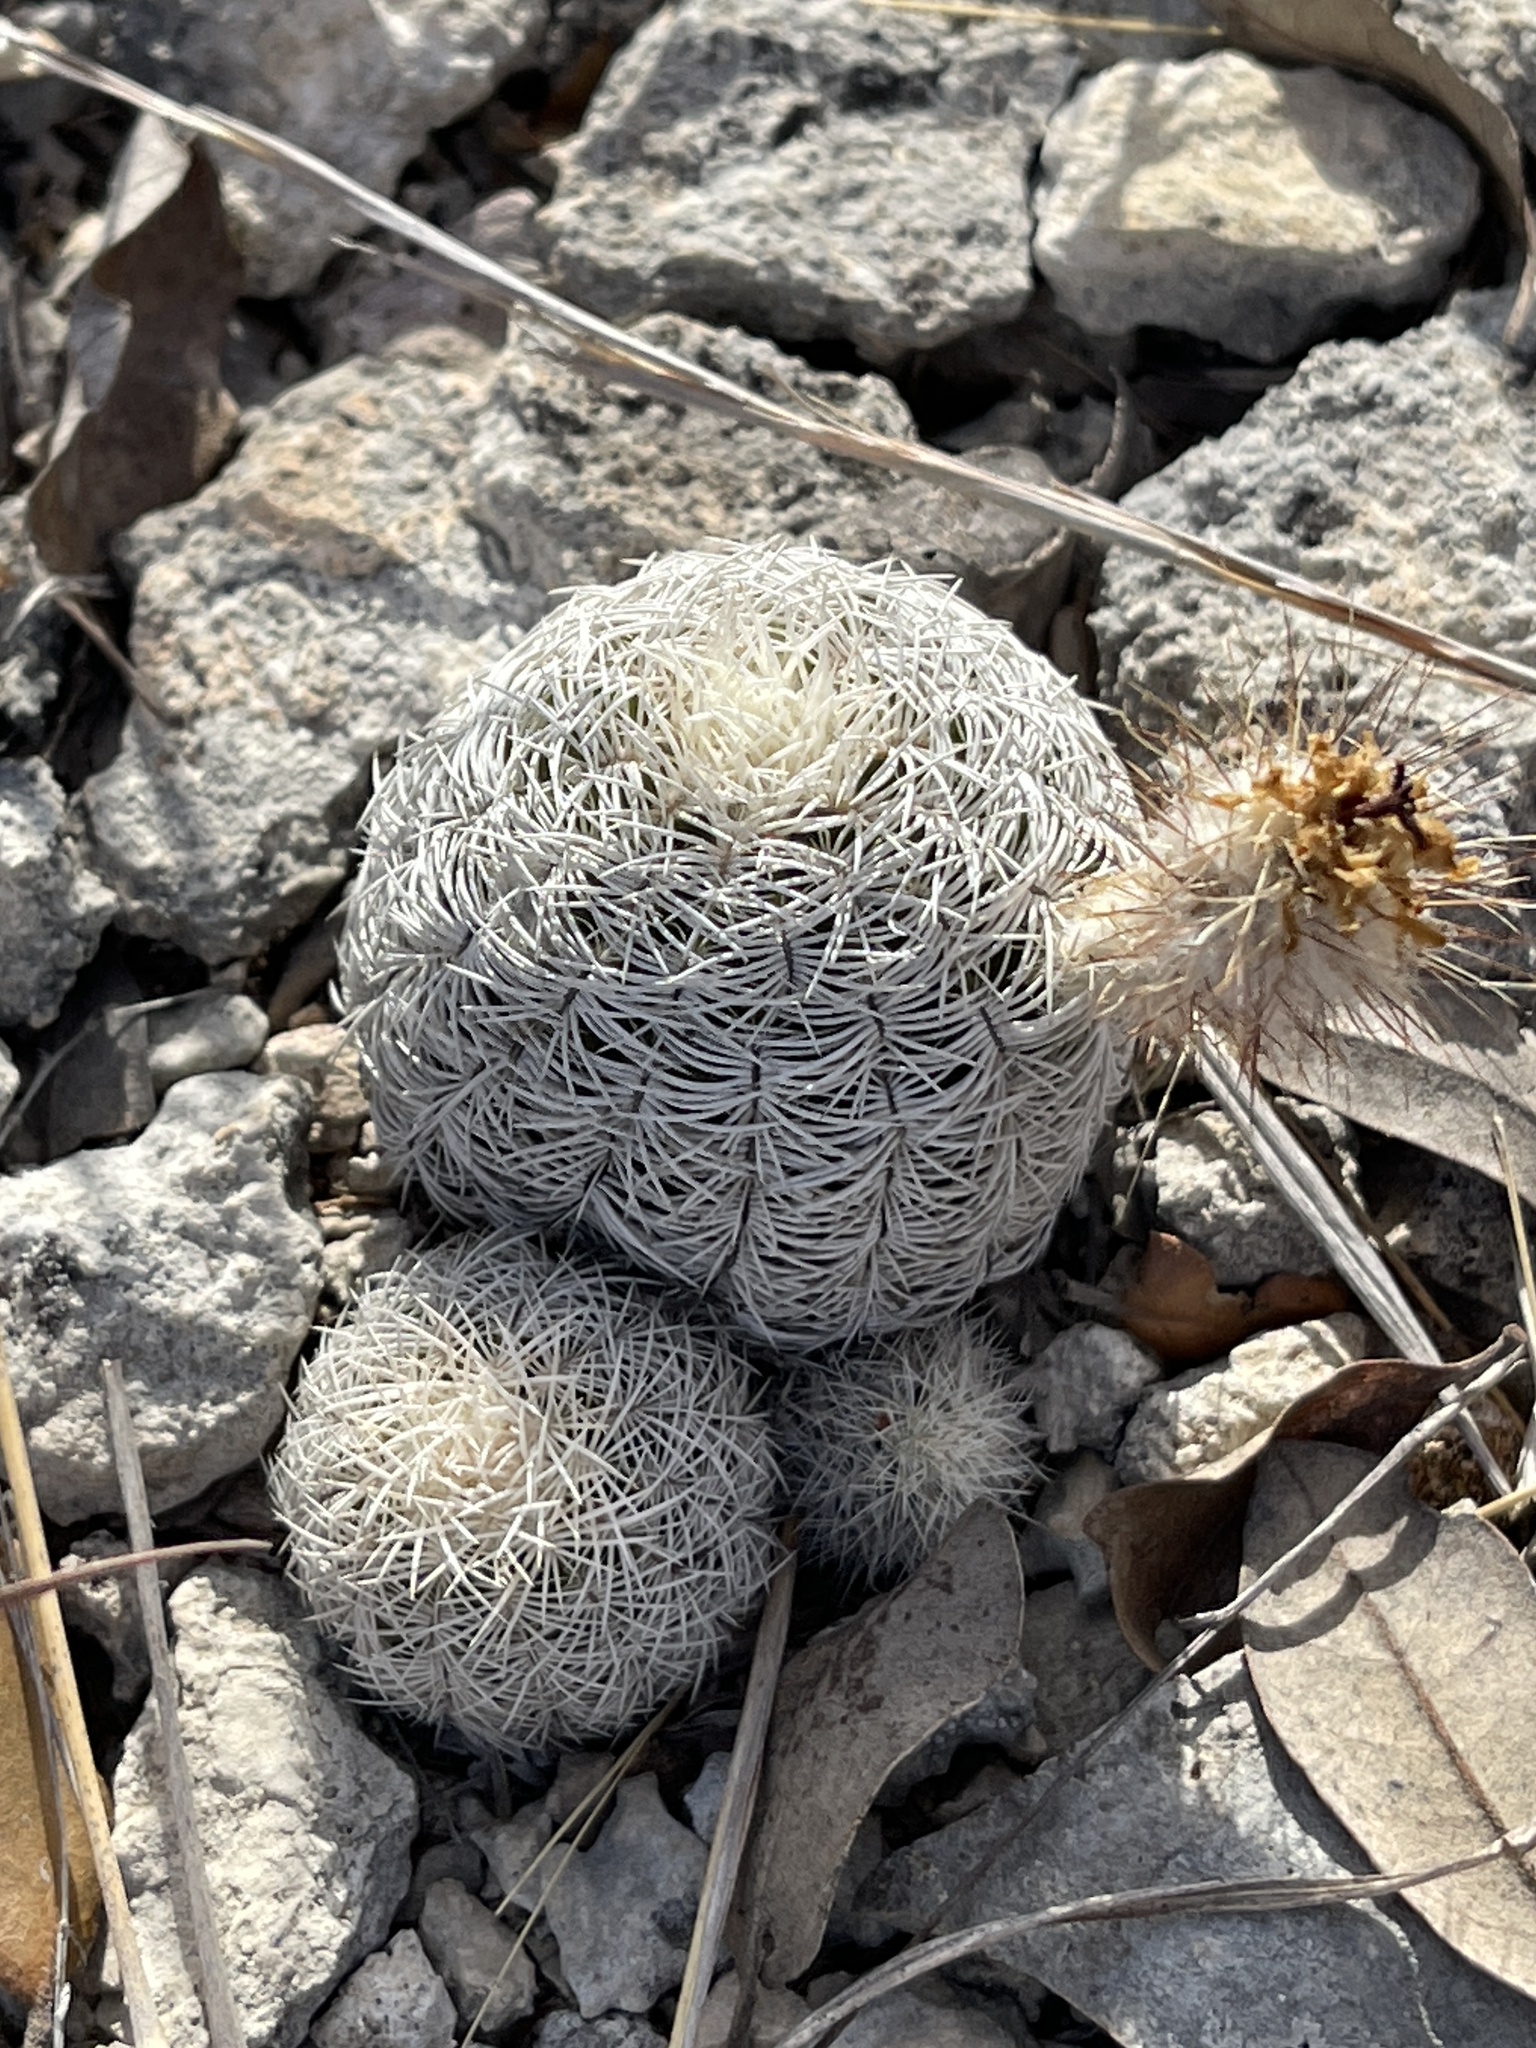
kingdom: Plantae
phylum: Tracheophyta
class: Magnoliopsida
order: Caryophyllales
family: Cactaceae
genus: Echinocereus
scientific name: Echinocereus reichenbachii
